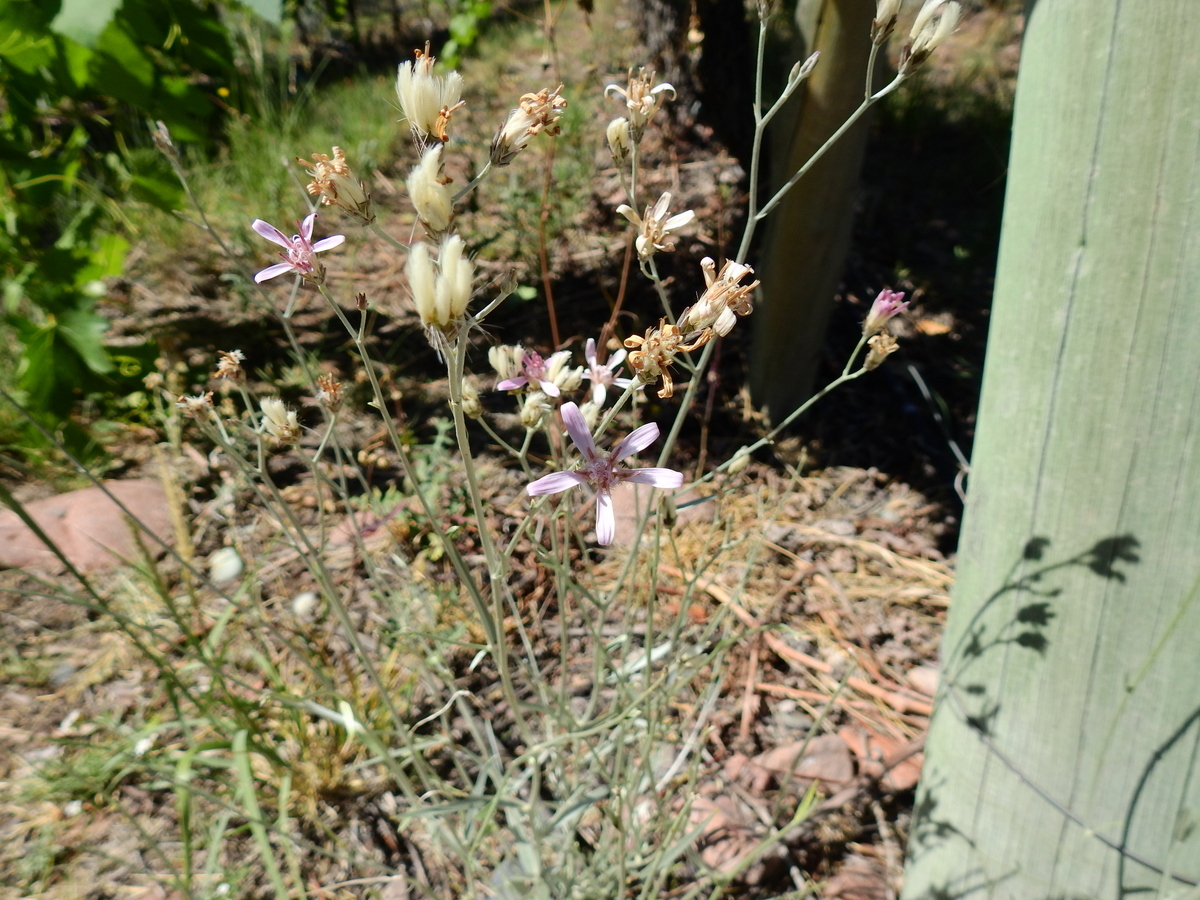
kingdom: Plantae
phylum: Tracheophyta
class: Magnoliopsida
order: Asterales
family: Asteraceae
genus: Hyalis
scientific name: Hyalis argentea
